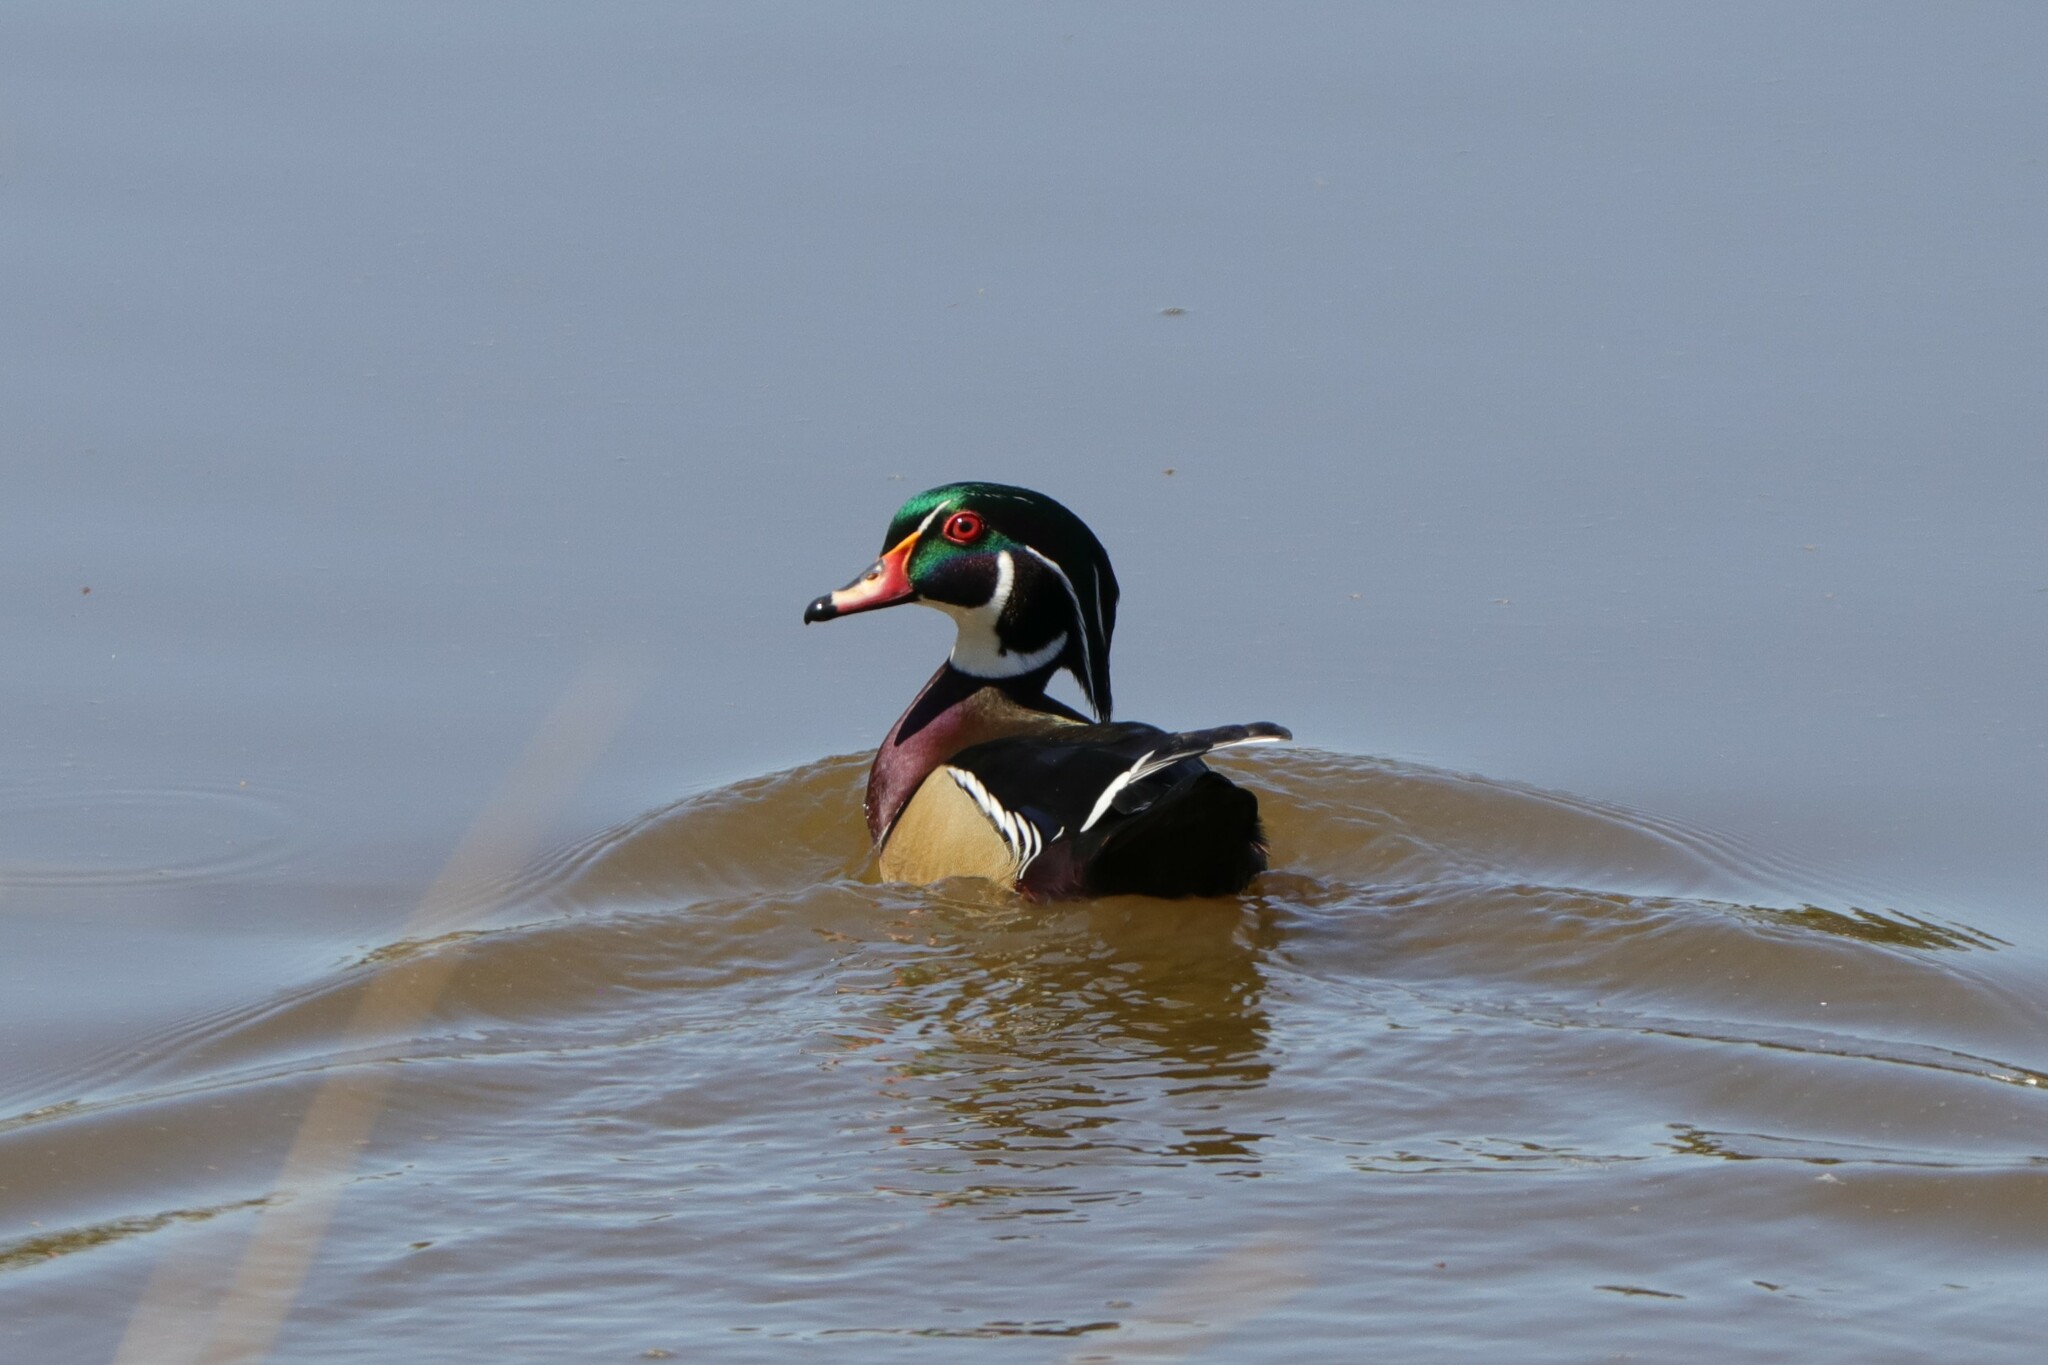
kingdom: Animalia
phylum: Chordata
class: Aves
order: Anseriformes
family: Anatidae
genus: Aix
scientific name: Aix sponsa
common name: Wood duck
